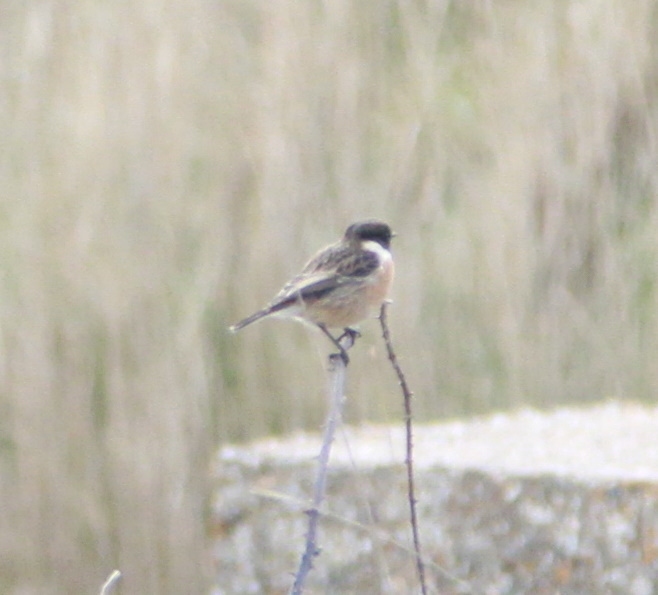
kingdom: Animalia
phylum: Chordata
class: Aves
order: Passeriformes
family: Muscicapidae
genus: Saxicola
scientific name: Saxicola rubicola
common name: European stonechat
